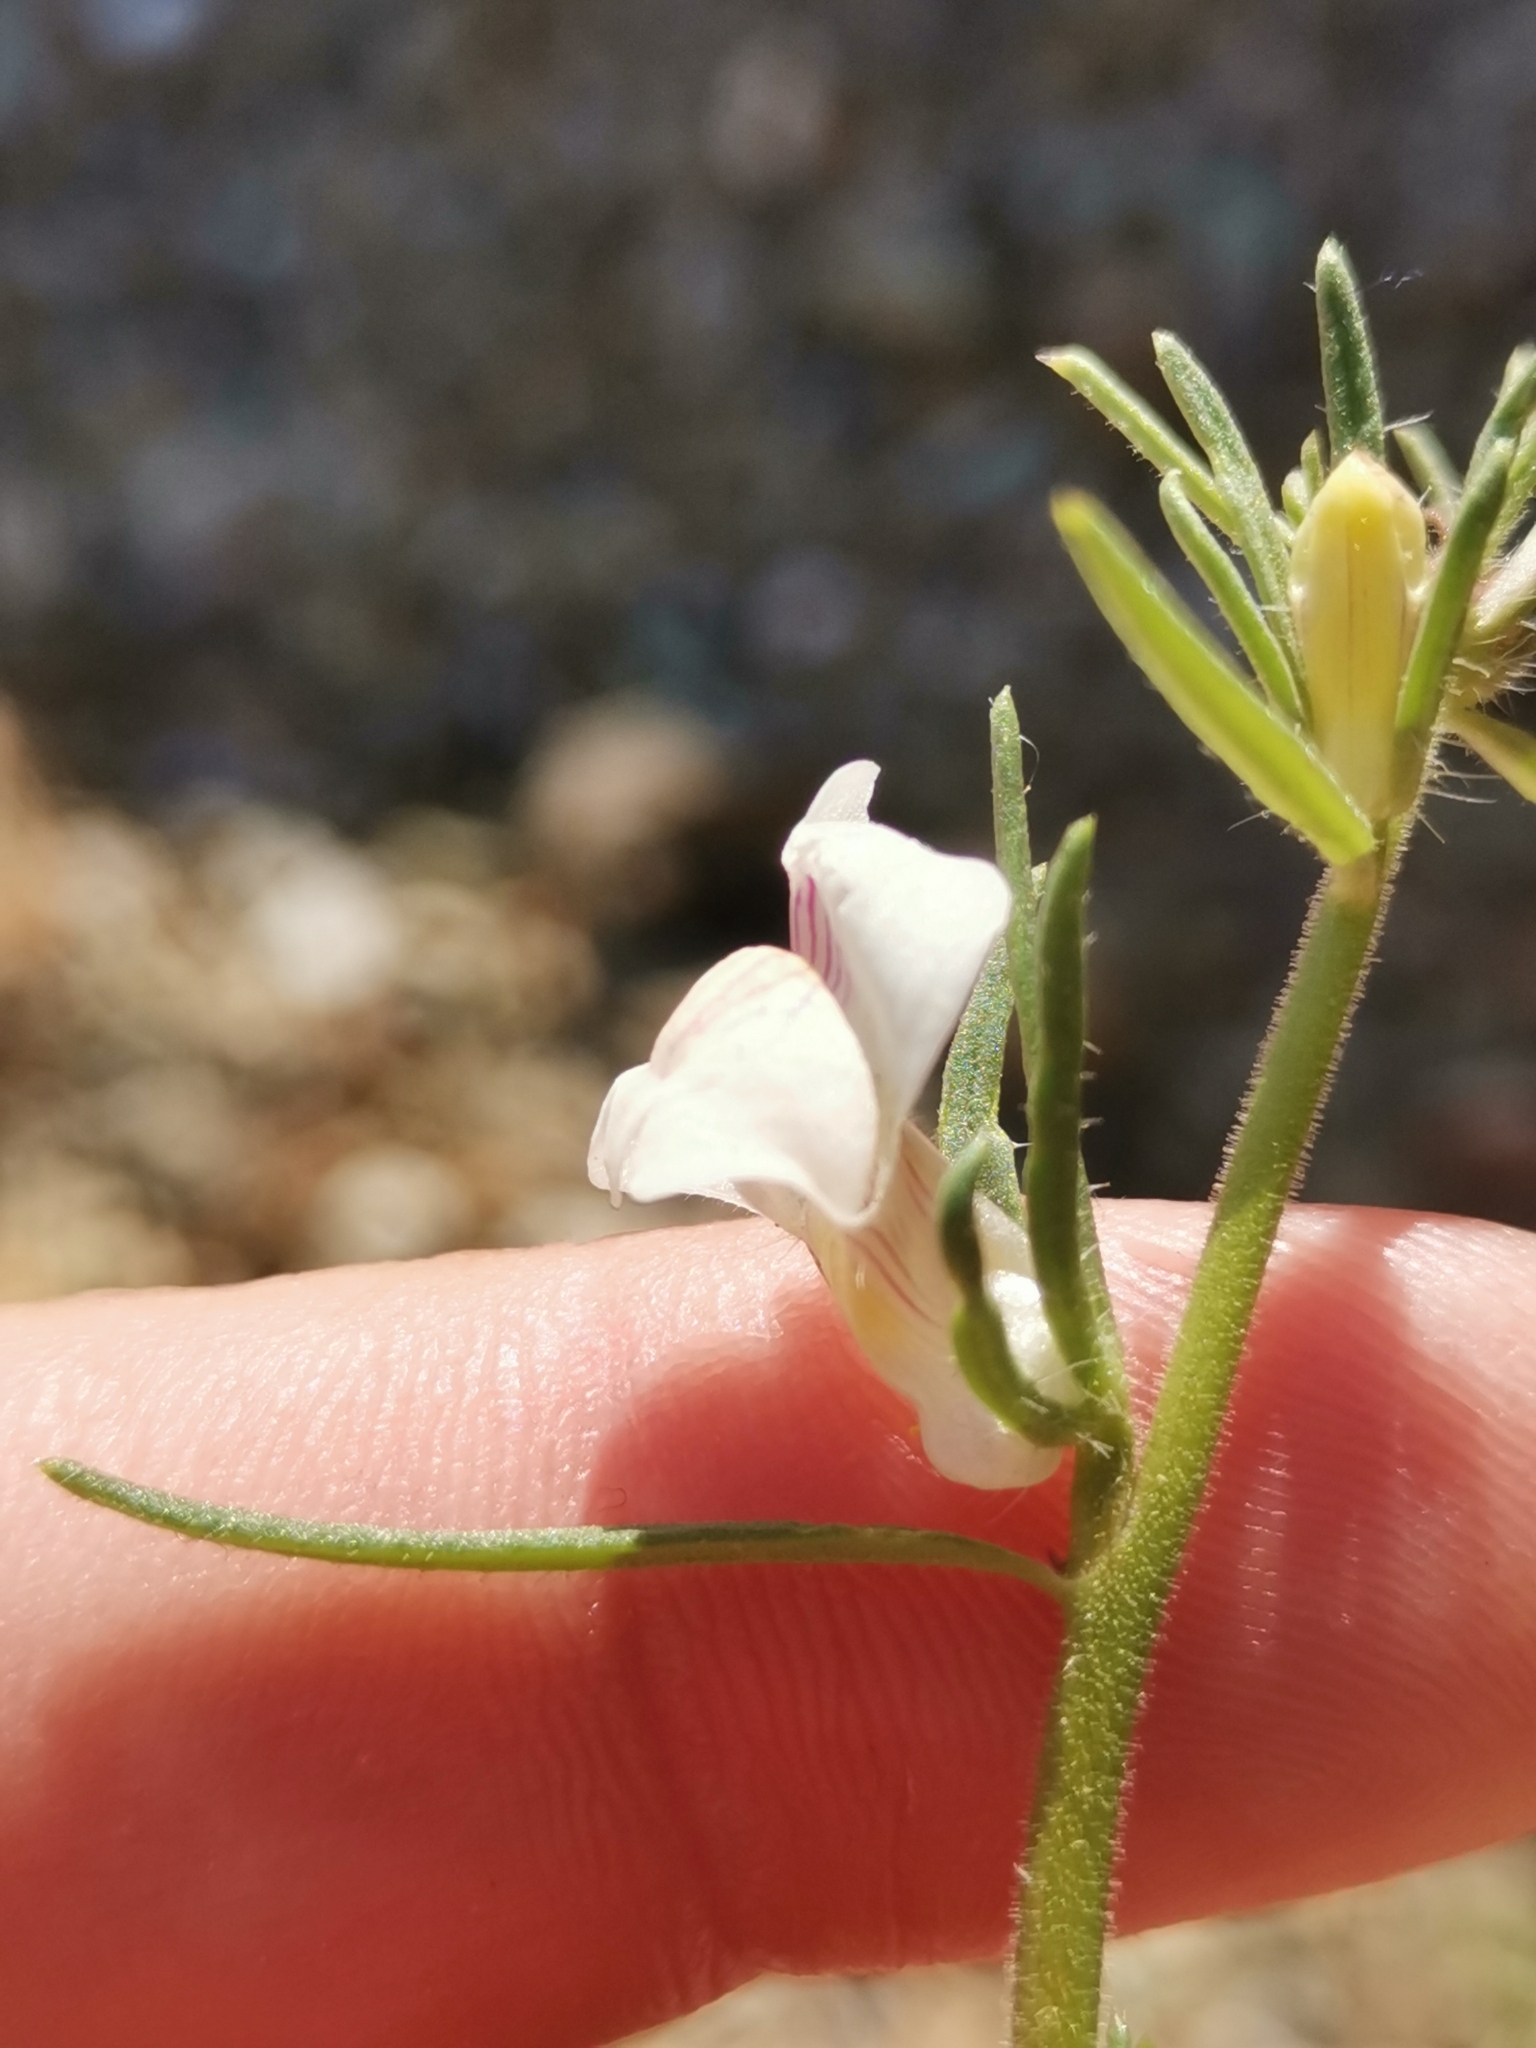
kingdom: Plantae
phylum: Tracheophyta
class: Magnoliopsida
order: Lamiales
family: Plantaginaceae
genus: Misopates
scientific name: Misopates microcarpum
